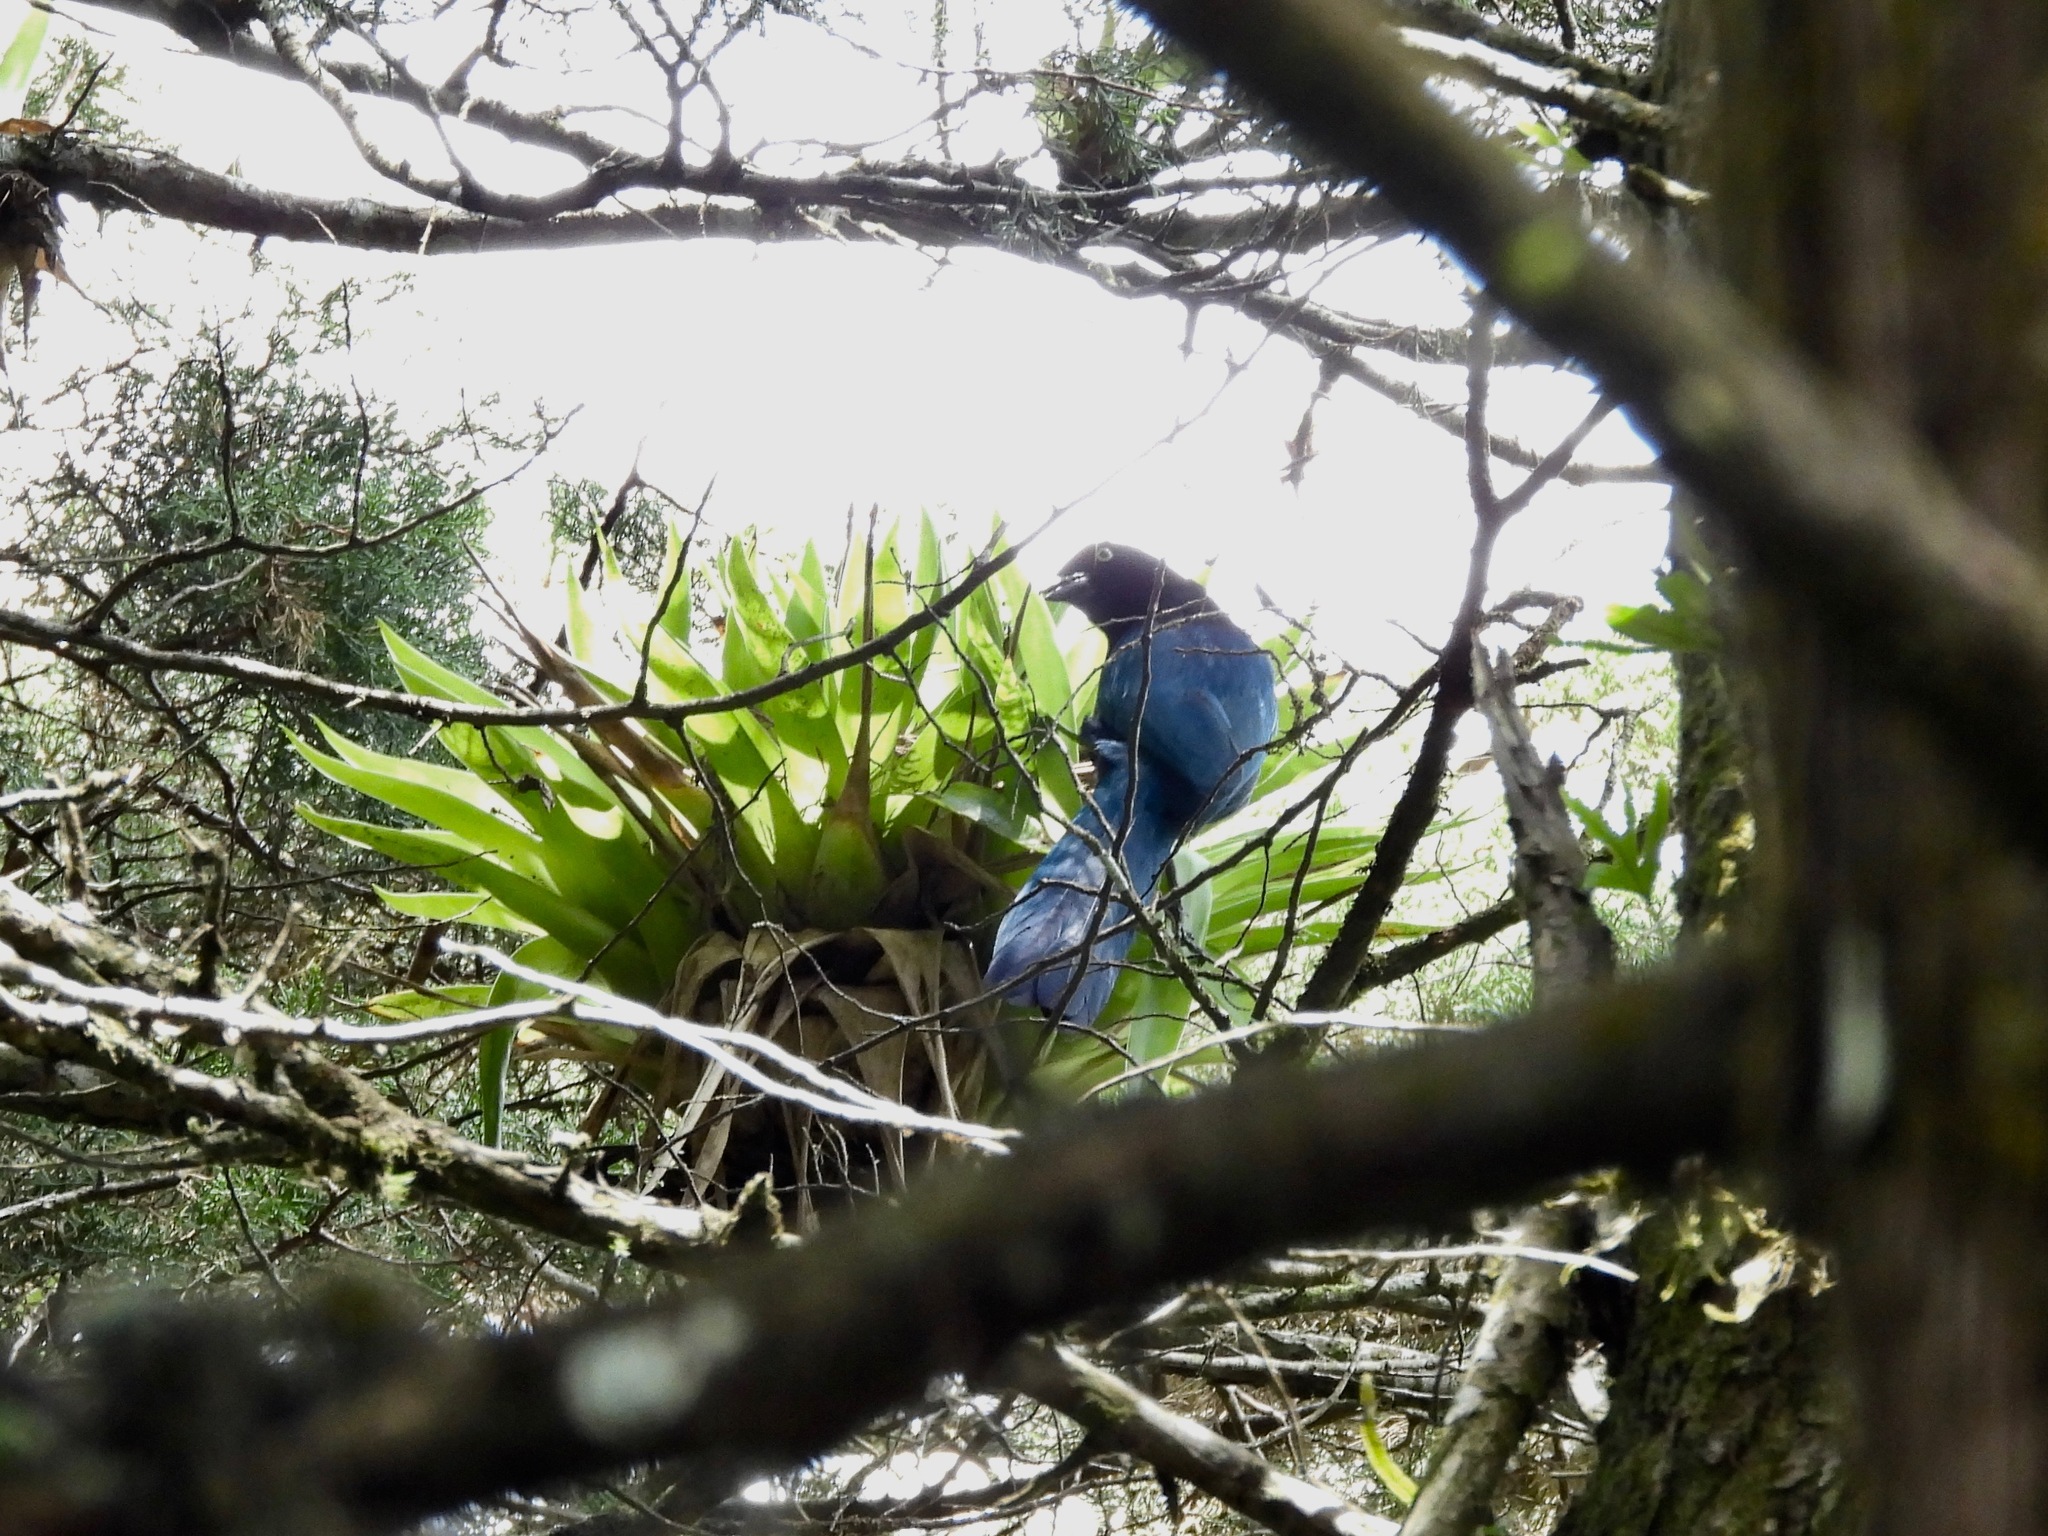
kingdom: Animalia
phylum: Chordata
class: Aves
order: Passeriformes
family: Corvidae
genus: Cyanocorax
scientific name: Cyanocorax melanocyaneus
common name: Bushy-crested jay
